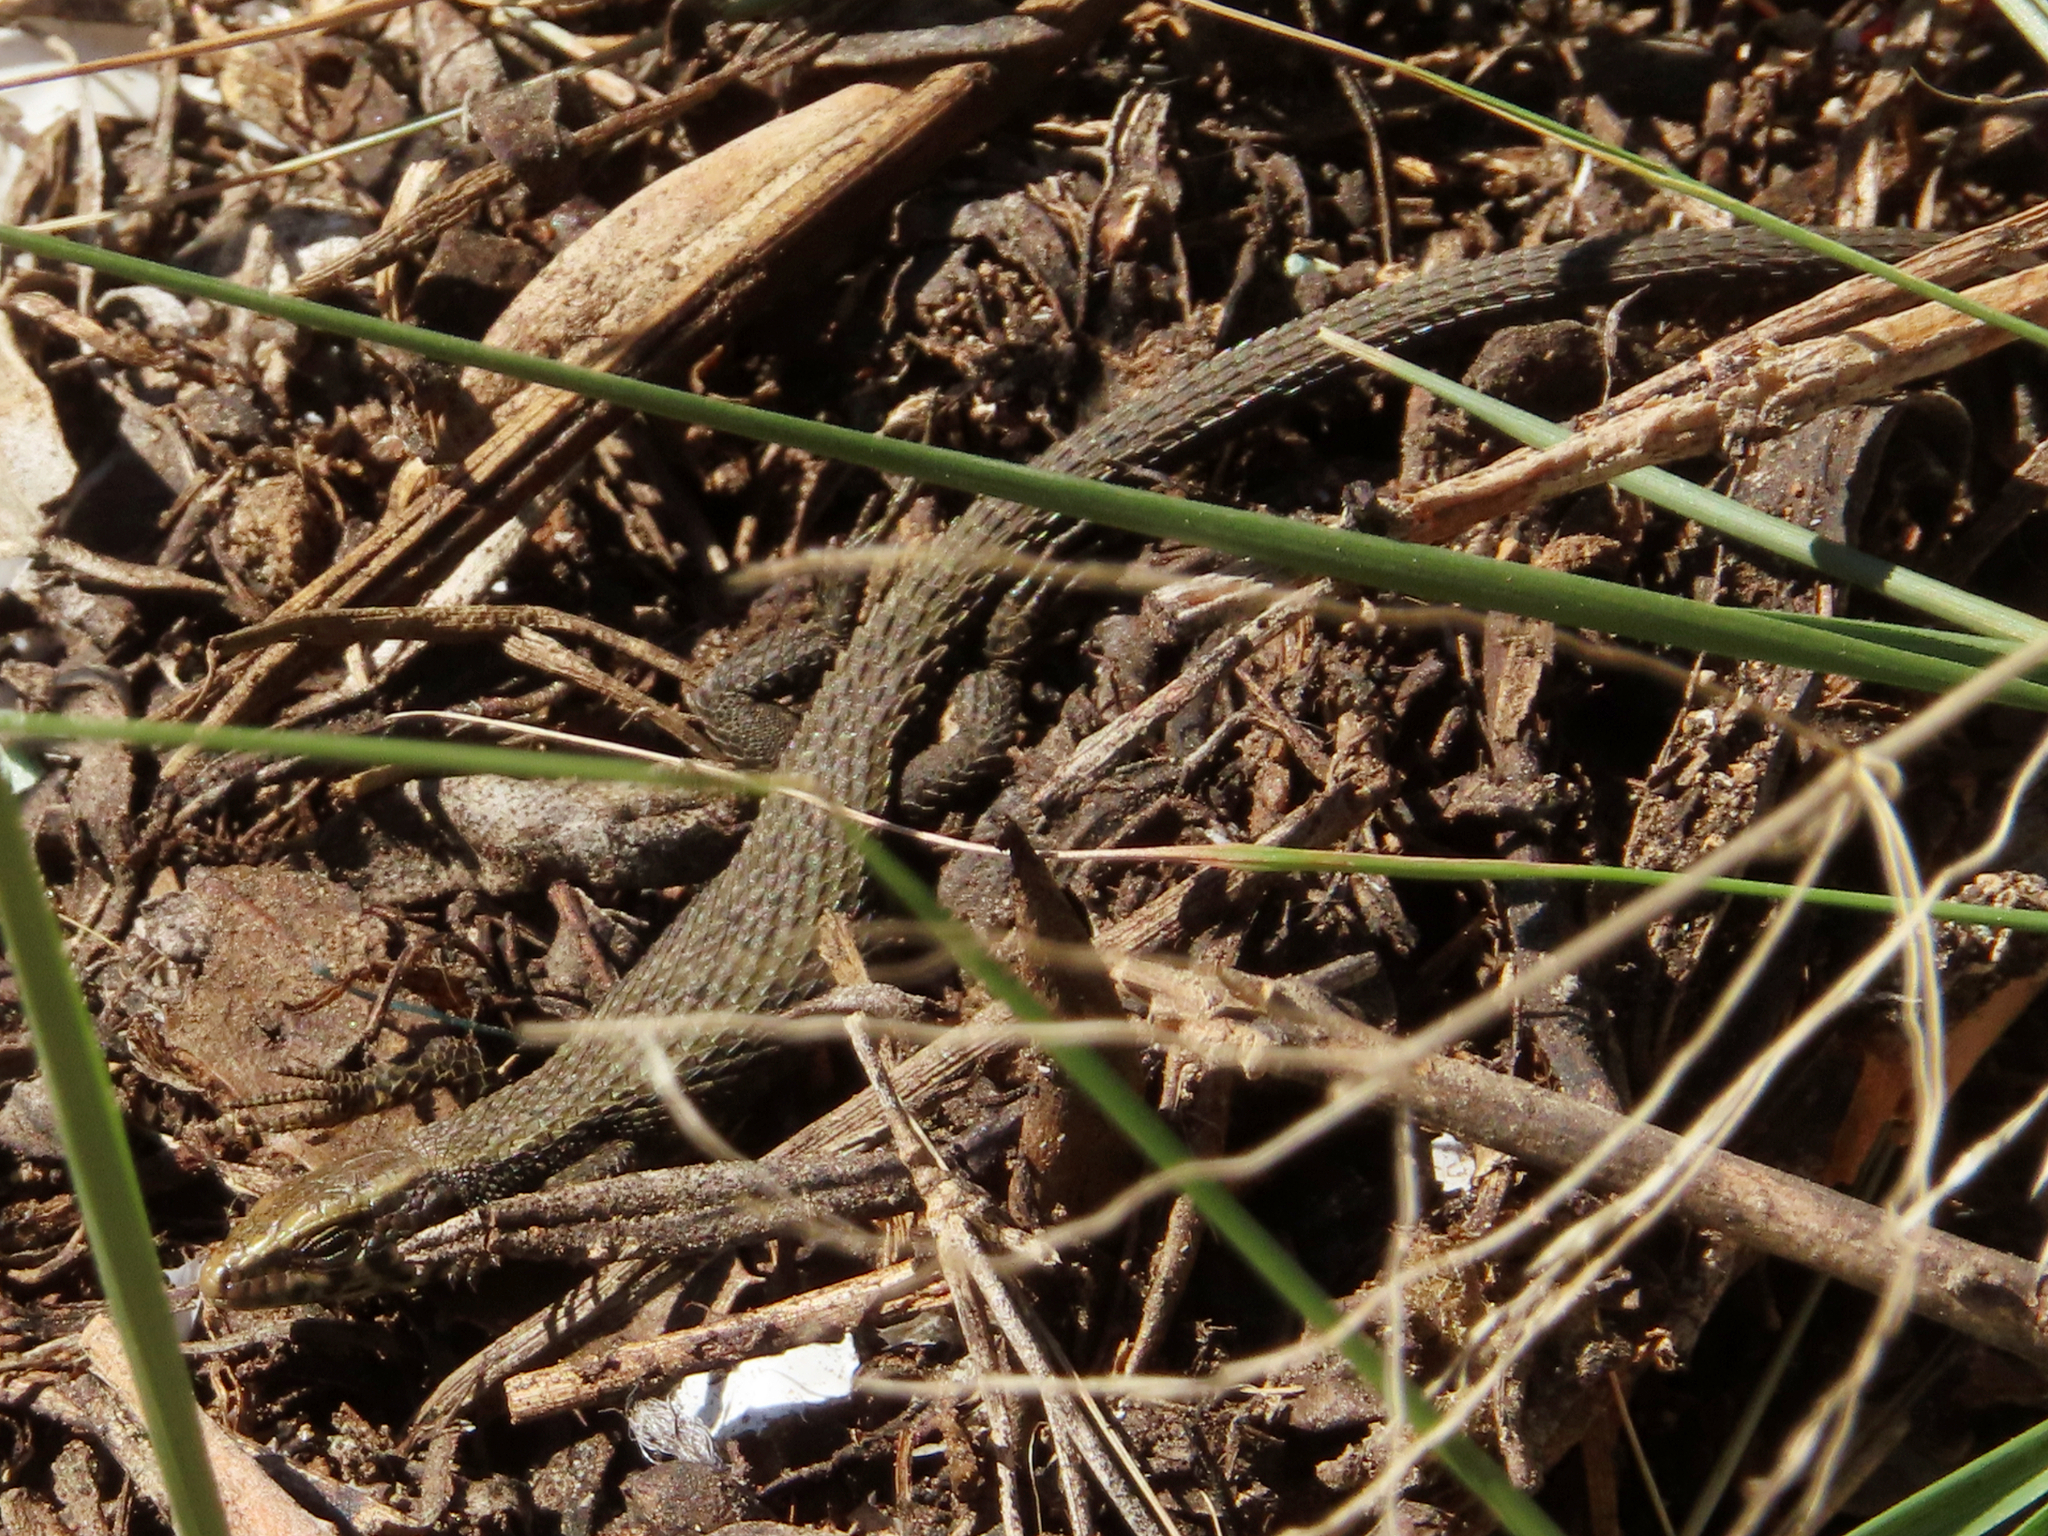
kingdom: Animalia
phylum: Chordata
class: Squamata
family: Lacertidae
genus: Algyroides
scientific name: Algyroides moreoticus
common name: Greek algyroides
